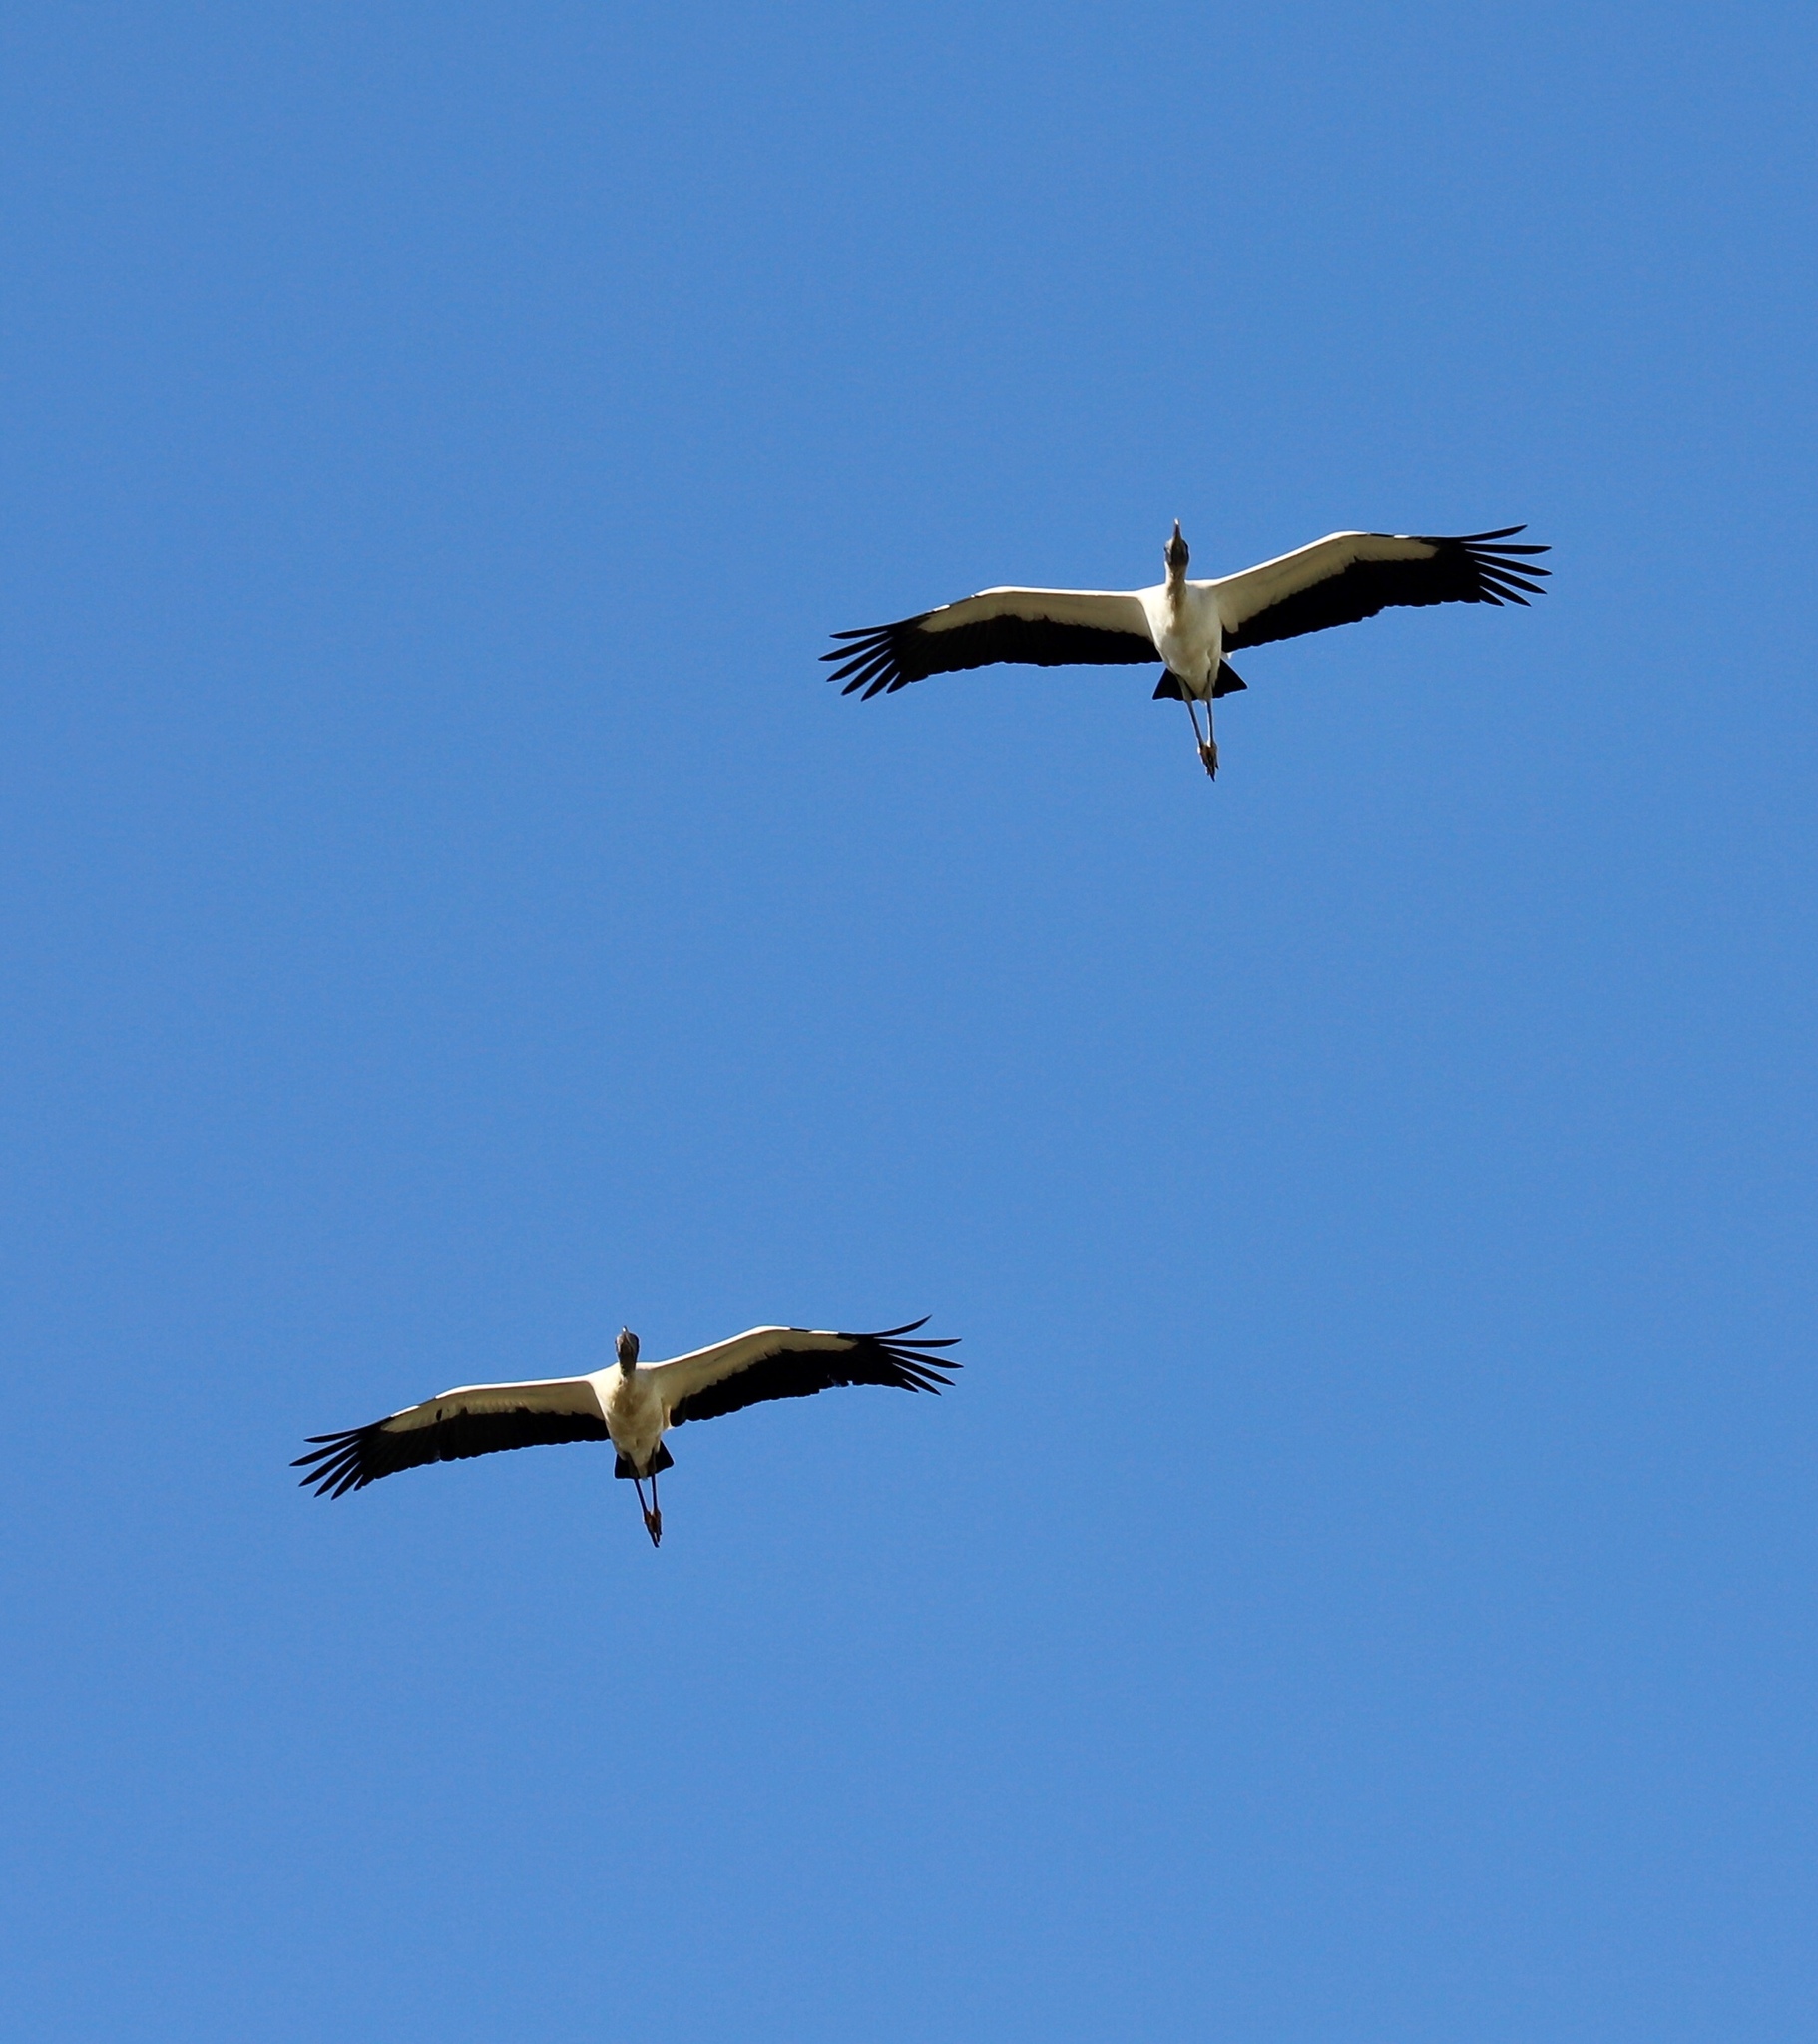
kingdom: Animalia
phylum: Chordata
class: Aves
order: Ciconiiformes
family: Ciconiidae
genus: Mycteria
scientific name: Mycteria americana
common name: Wood stork
